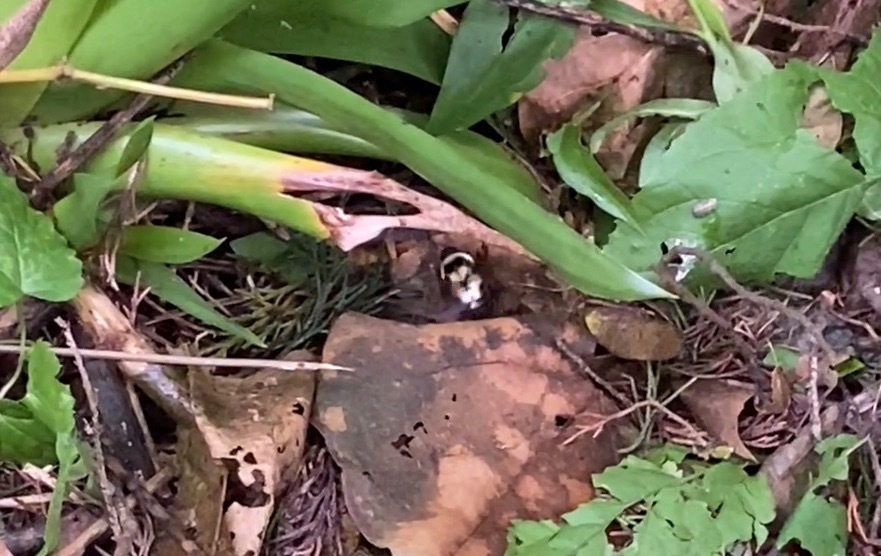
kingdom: Animalia
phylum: Arthropoda
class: Insecta
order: Hymenoptera
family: Apidae
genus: Bombus
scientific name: Bombus wilmattae
